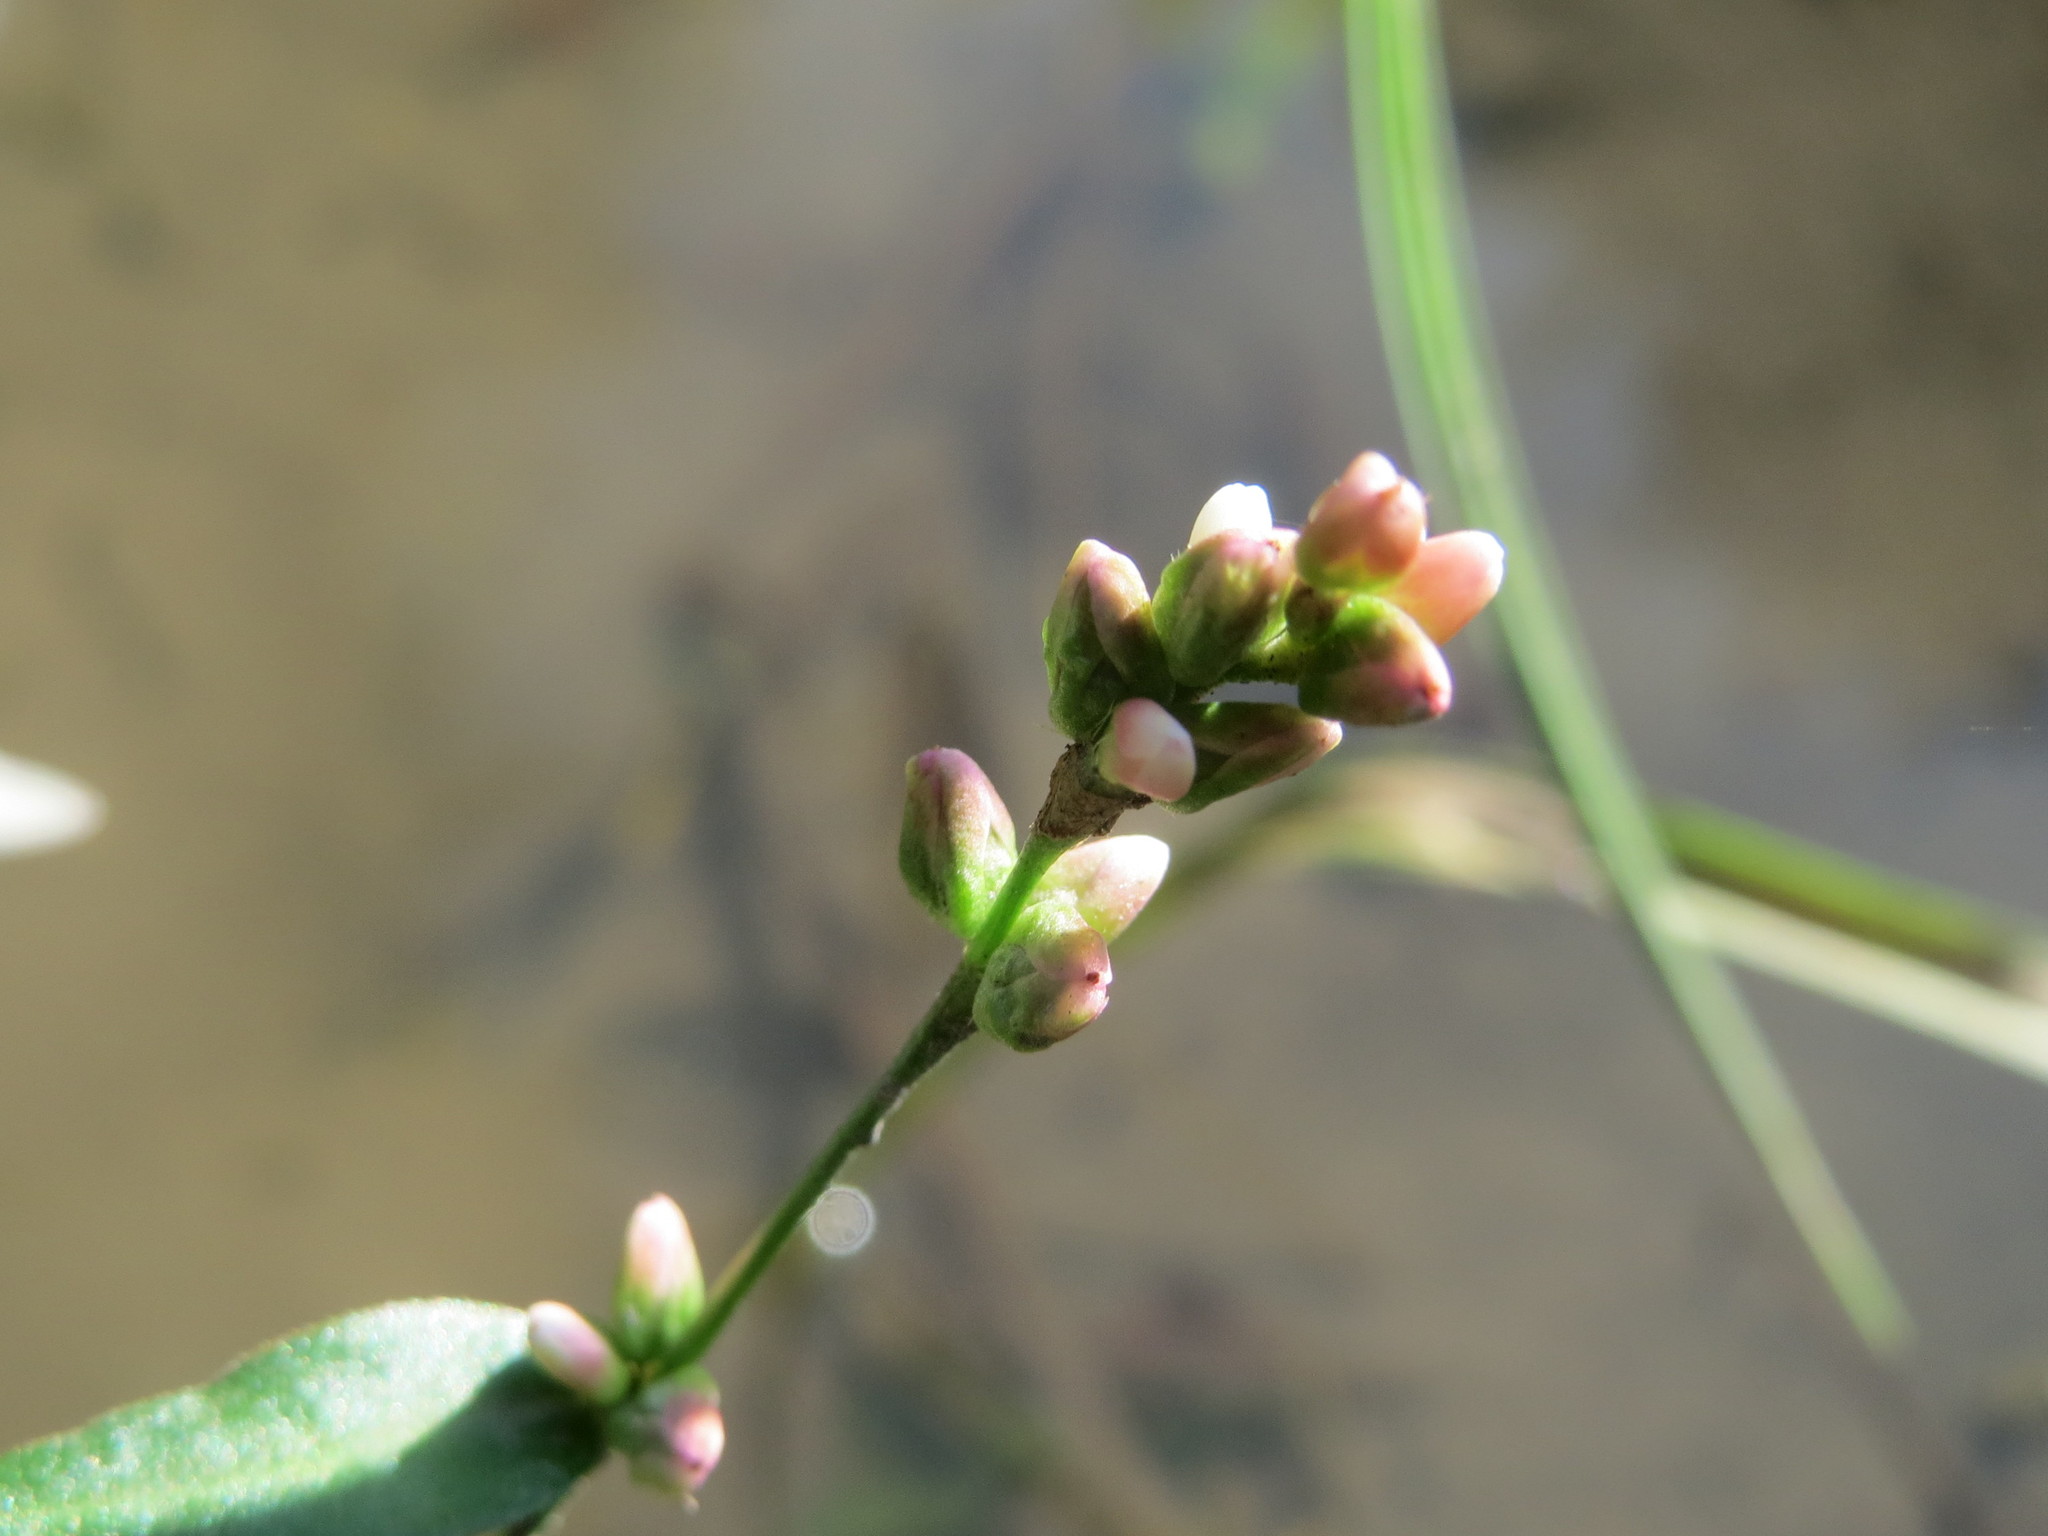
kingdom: Plantae
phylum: Tracheophyta
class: Magnoliopsida
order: Caryophyllales
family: Polygonaceae
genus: Persicaria
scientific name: Persicaria amphibia
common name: Amphibious bistort
